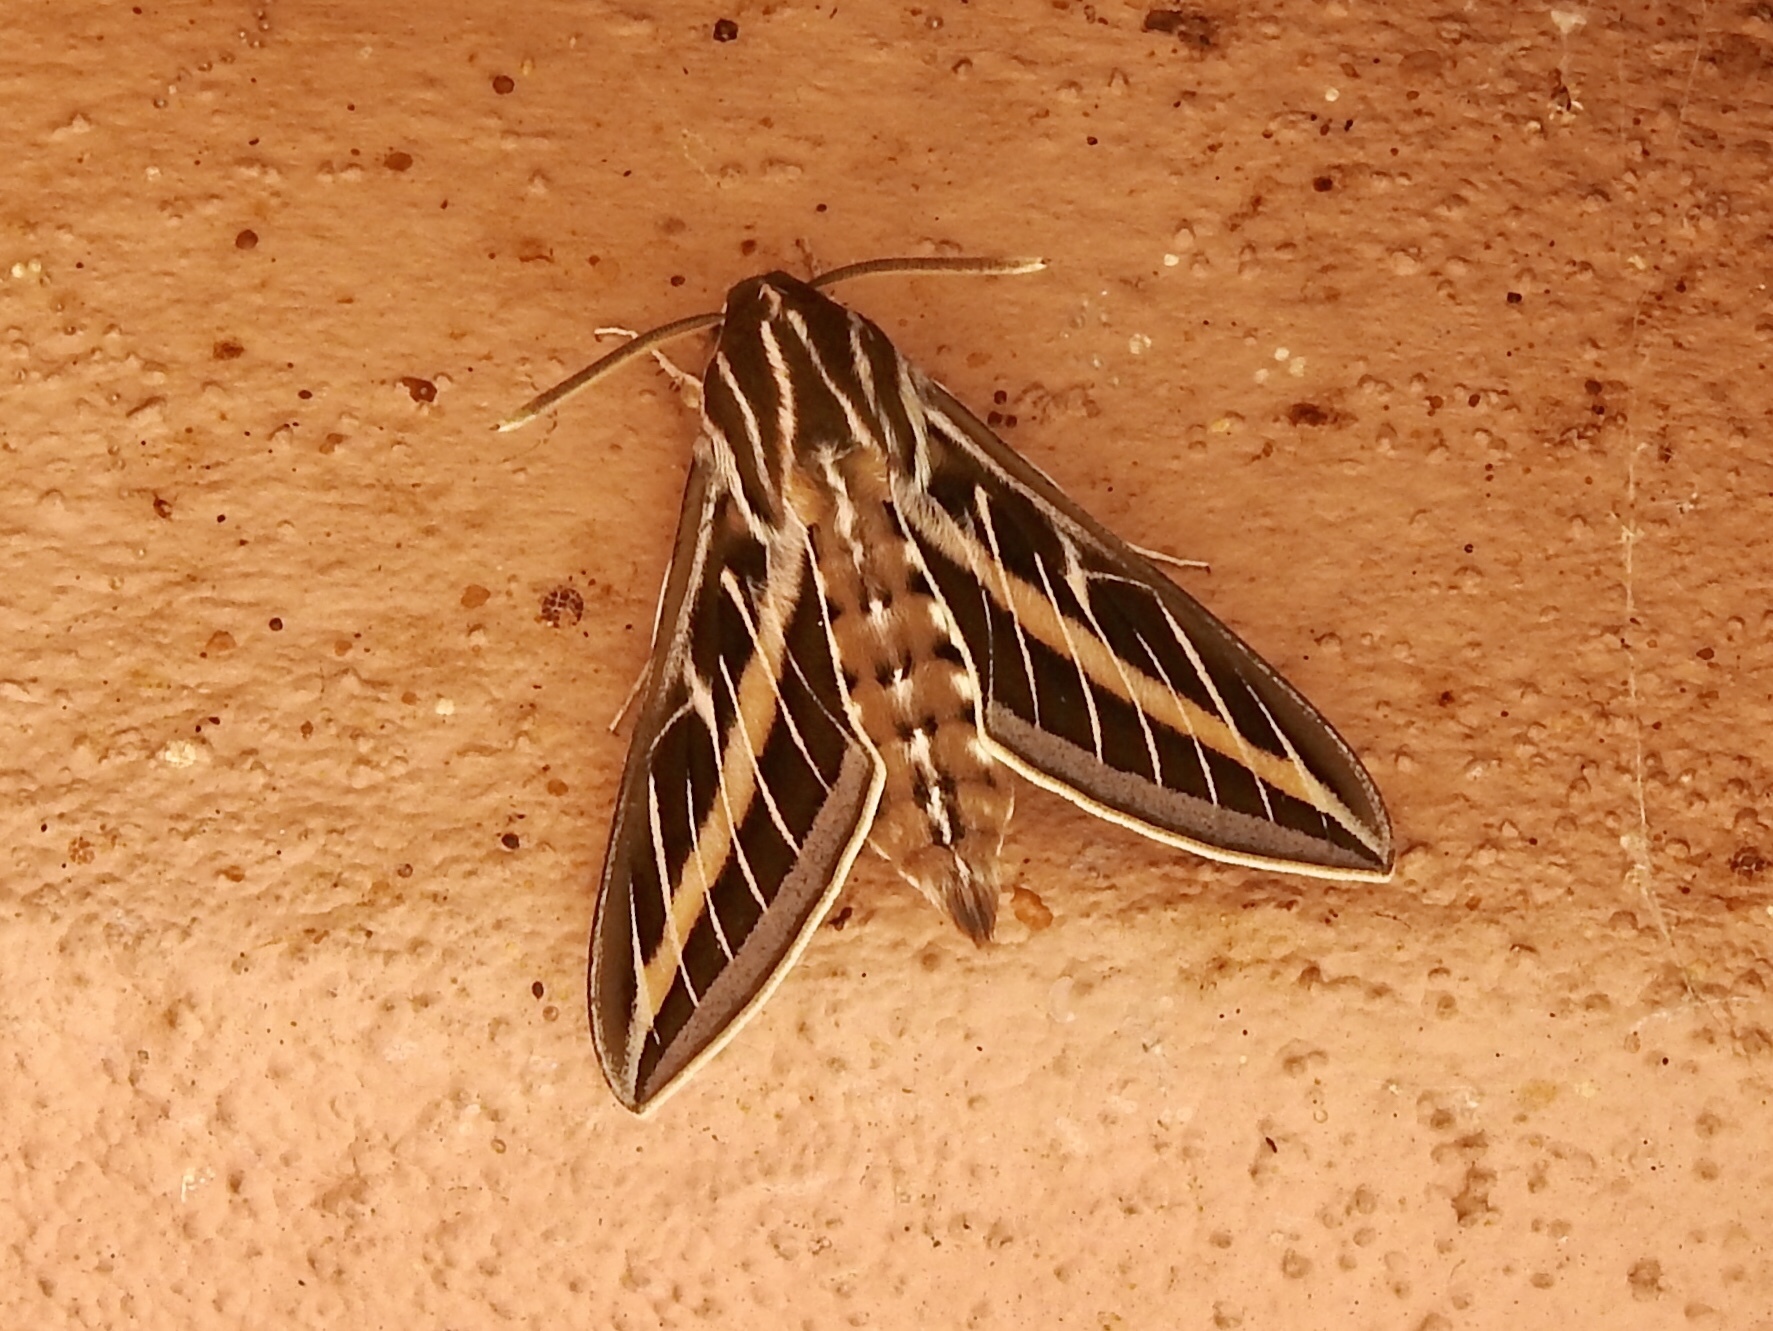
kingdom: Animalia
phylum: Arthropoda
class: Insecta
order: Lepidoptera
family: Sphingidae
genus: Hyles
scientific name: Hyles lineata
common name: White-lined sphinx
